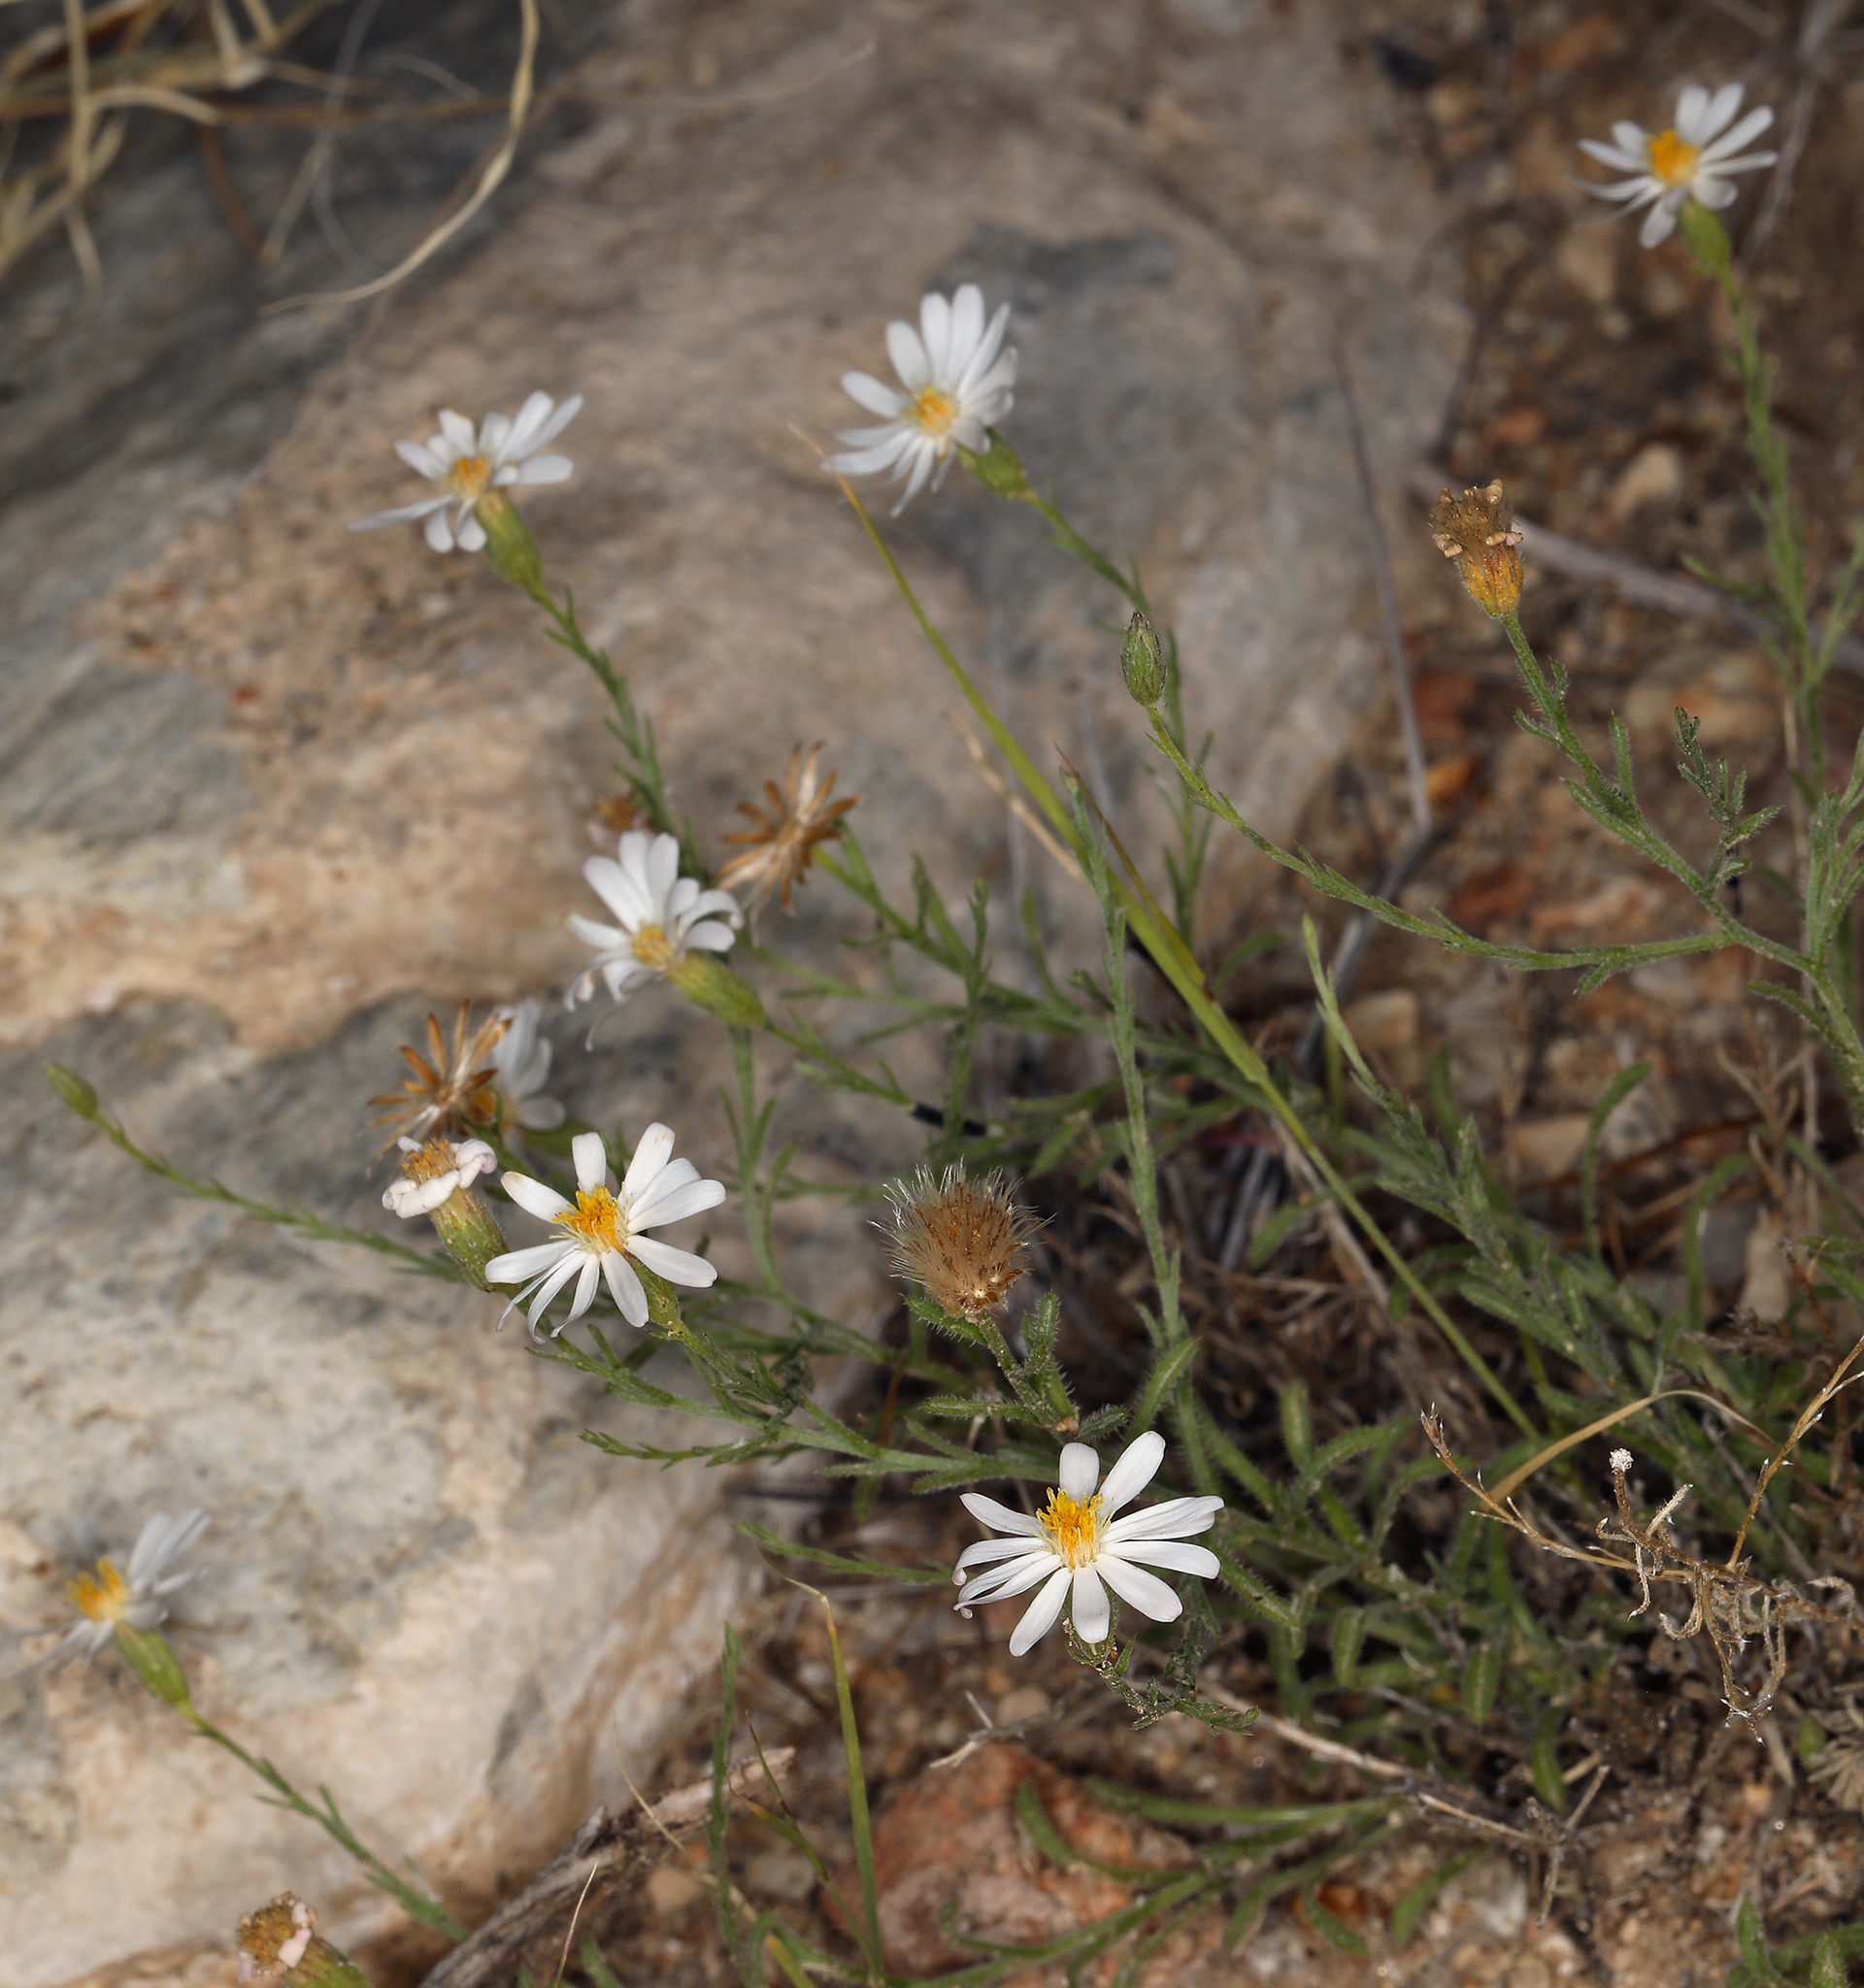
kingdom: Plantae
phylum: Tracheophyta
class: Magnoliopsida
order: Asterales
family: Asteraceae
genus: Chaetopappa
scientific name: Chaetopappa ericoides
